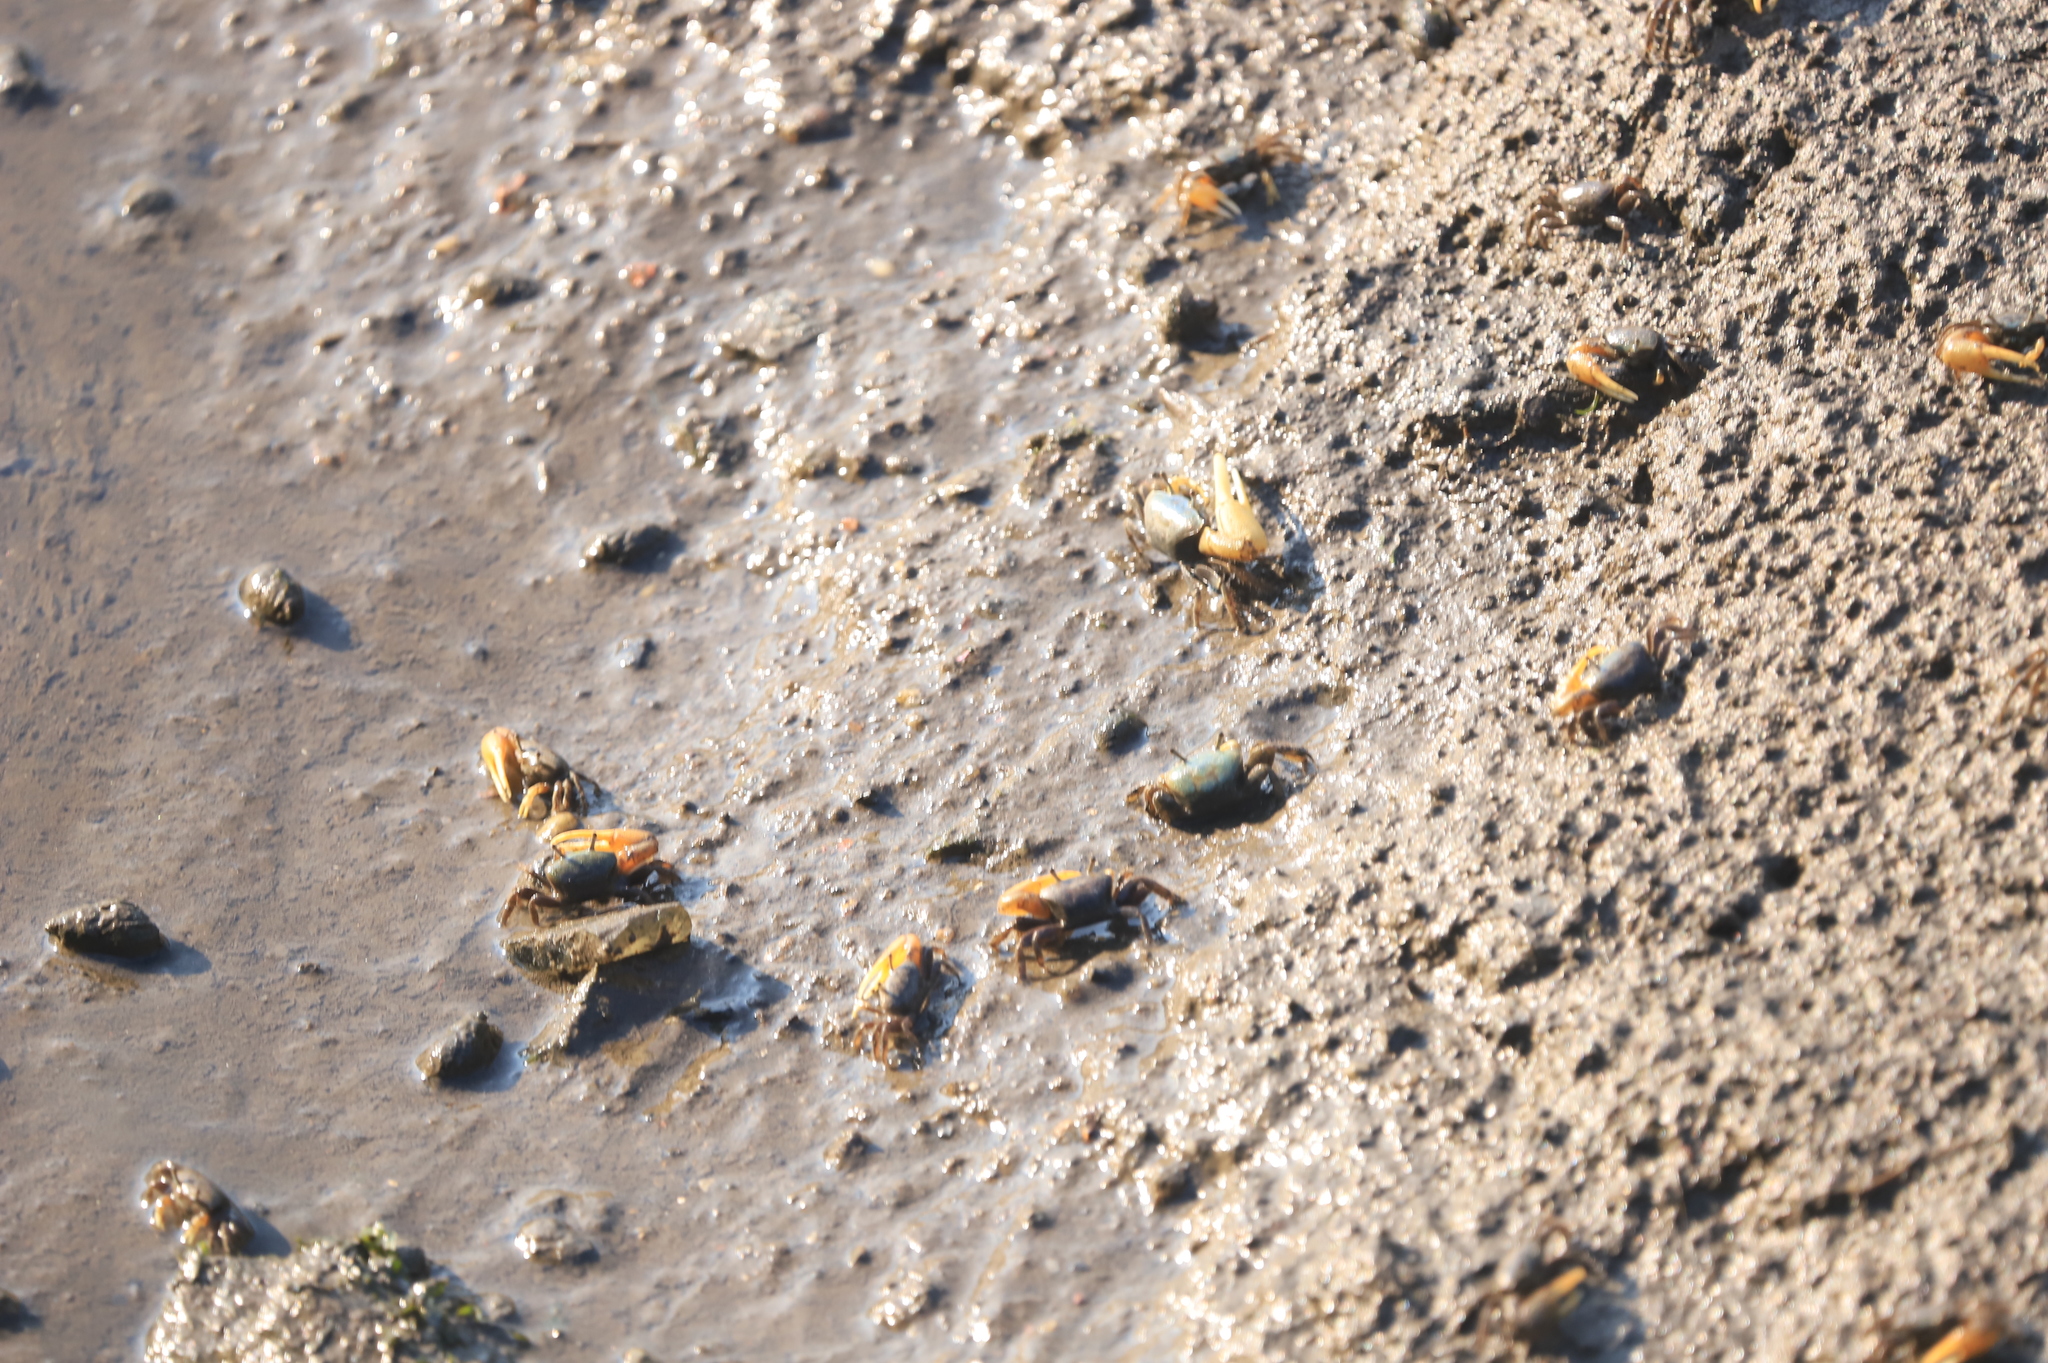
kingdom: Animalia
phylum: Arthropoda
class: Malacostraca
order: Decapoda
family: Ocypodidae
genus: Minuca
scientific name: Minuca pugnax
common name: Mud fiddler crab
